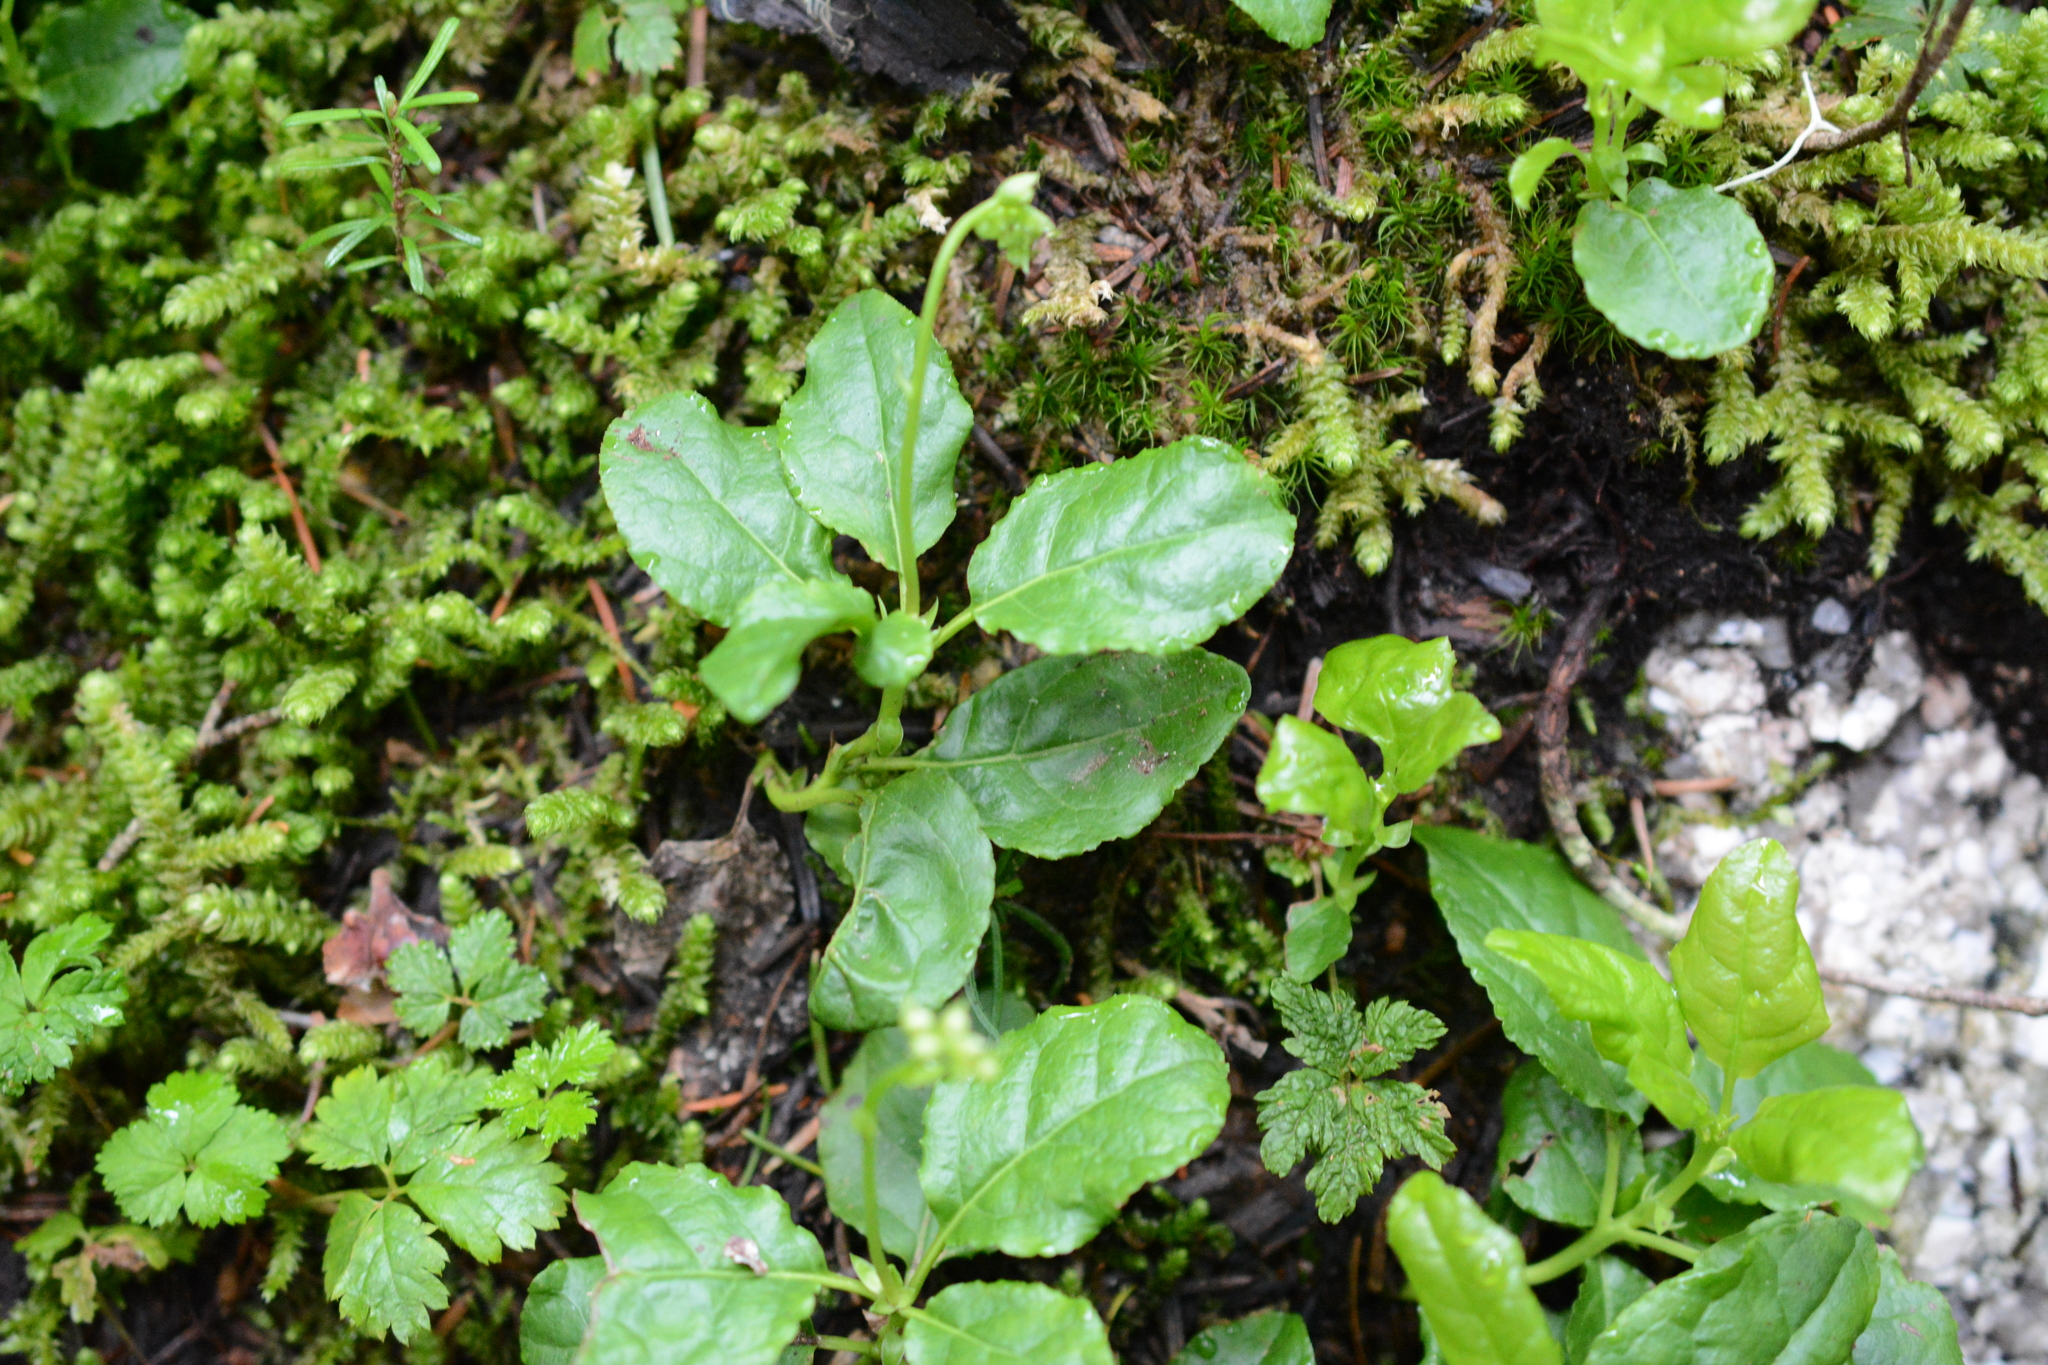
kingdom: Plantae
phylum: Tracheophyta
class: Magnoliopsida
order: Ericales
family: Ericaceae
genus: Orthilia
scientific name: Orthilia secunda
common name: One-sided orthilia
